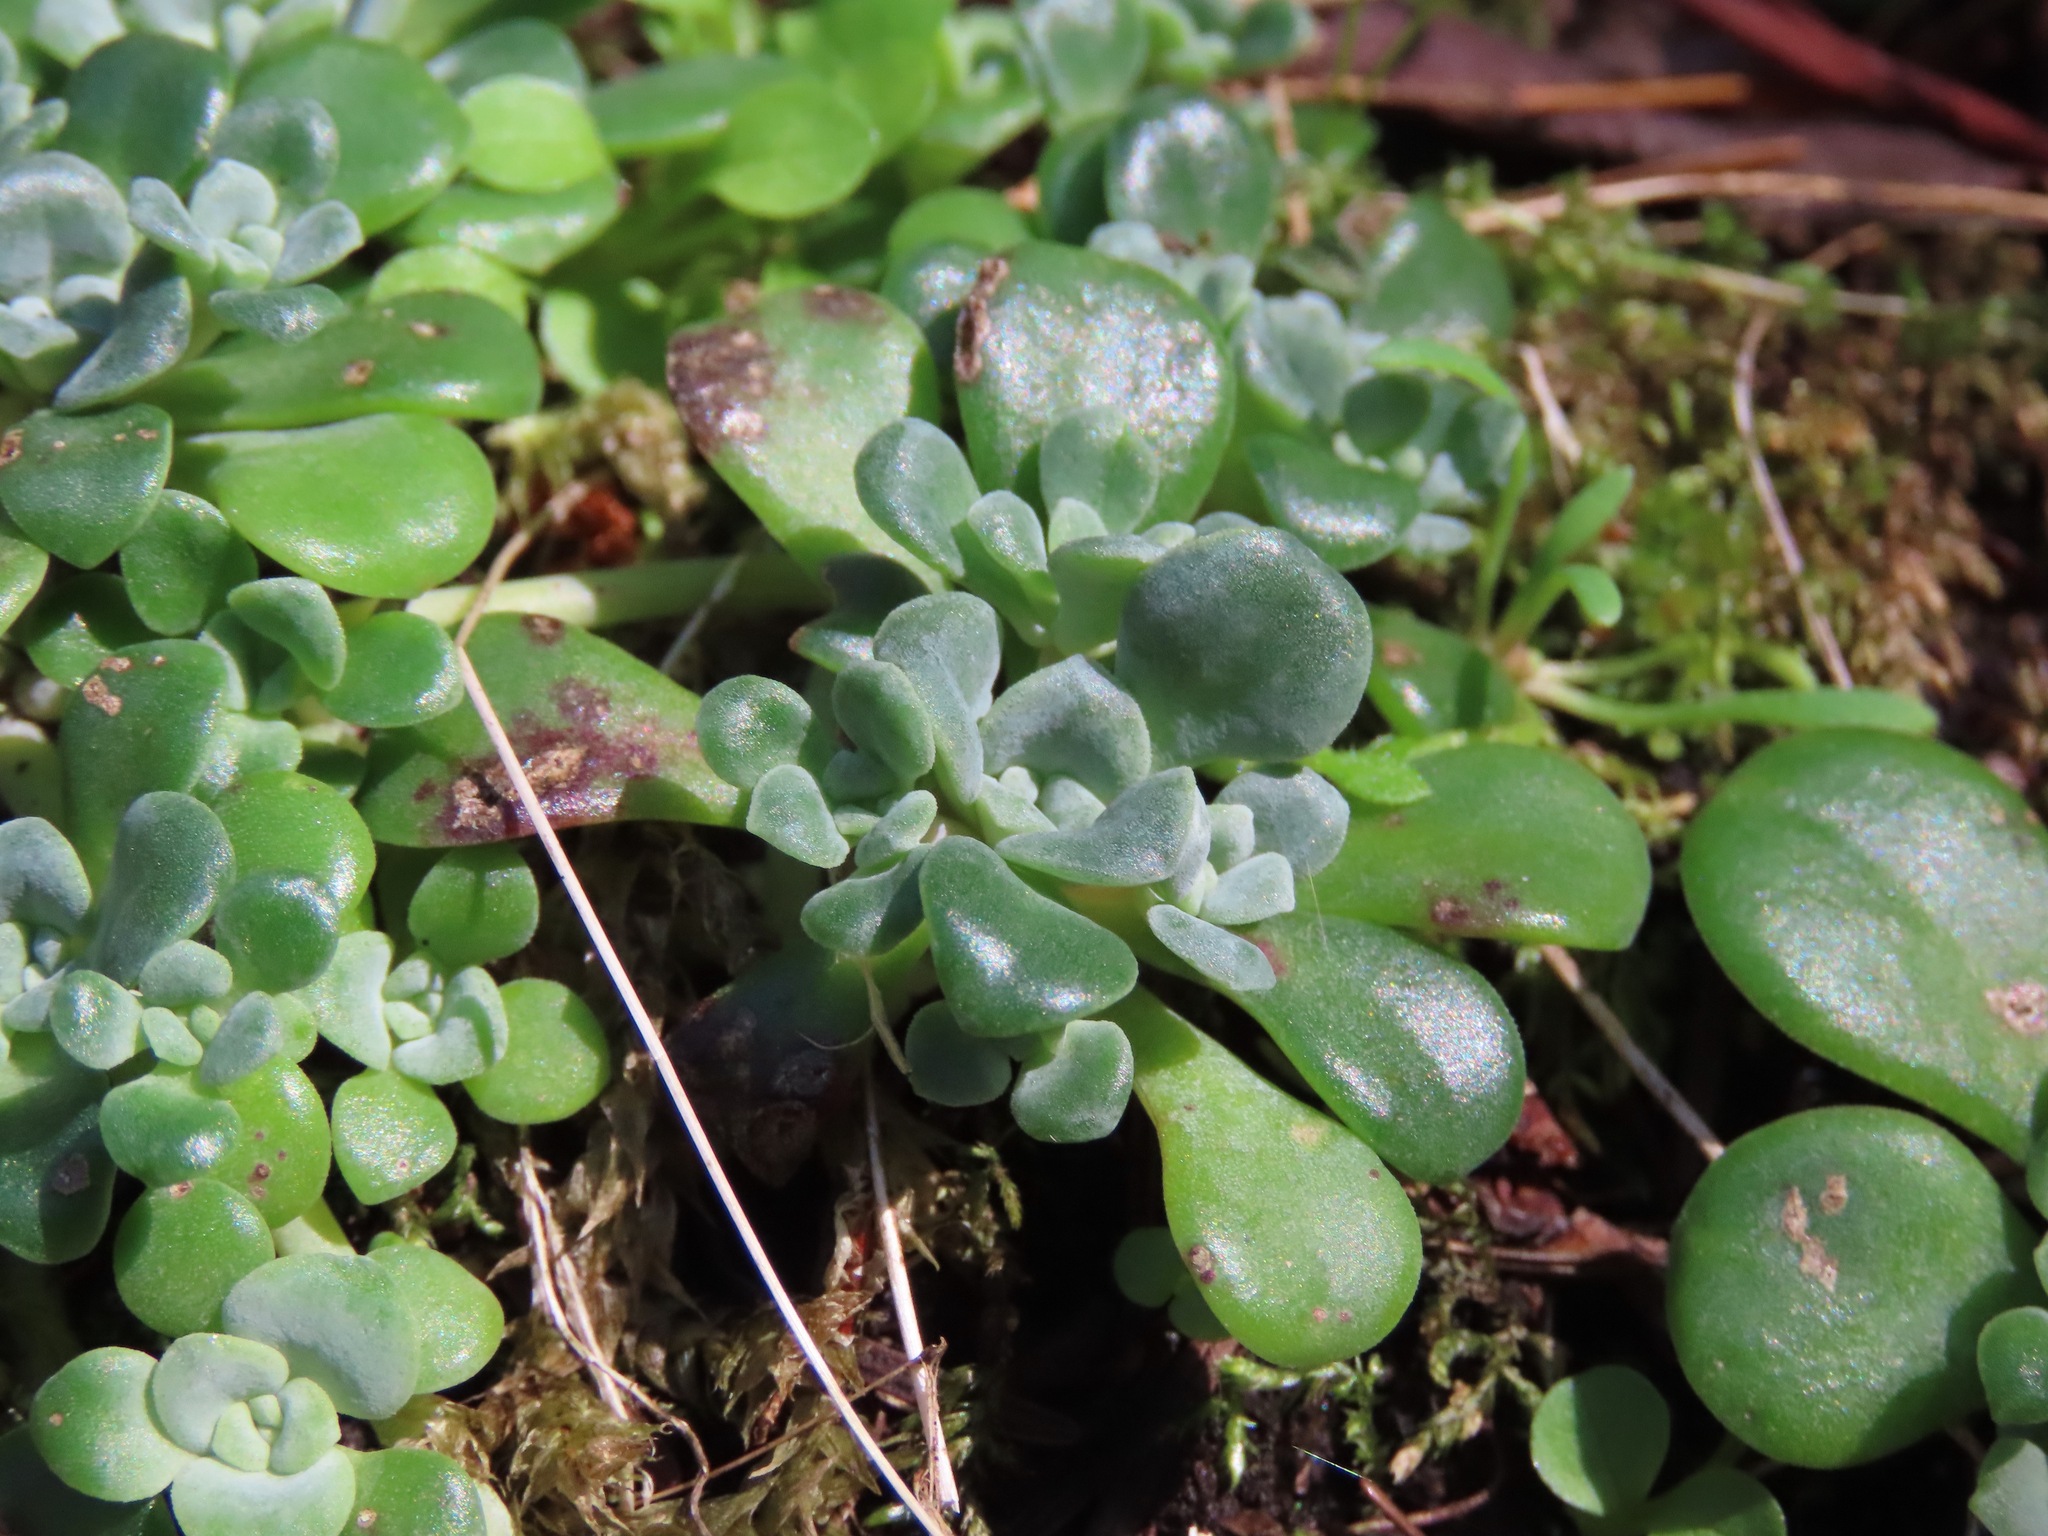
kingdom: Plantae
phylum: Tracheophyta
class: Magnoliopsida
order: Saxifragales
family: Crassulaceae
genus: Sedum
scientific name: Sedum spathulifolium
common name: Colorado stonecrop
